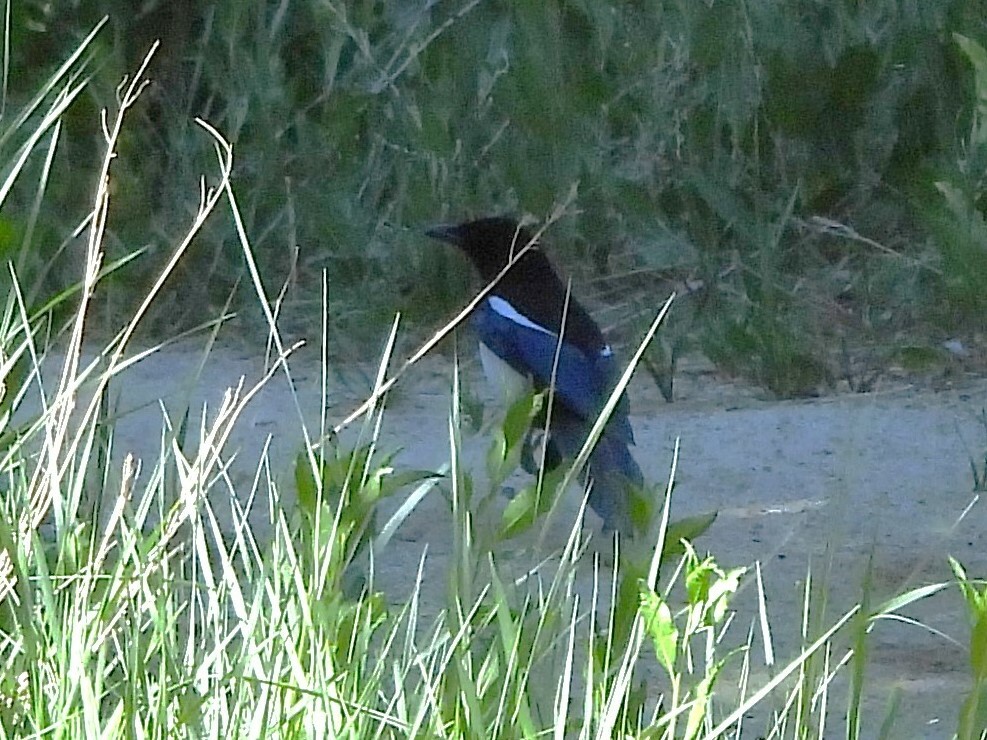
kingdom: Animalia
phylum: Chordata
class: Aves
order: Passeriformes
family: Corvidae
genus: Pica
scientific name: Pica hudsonia
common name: Black-billed magpie
